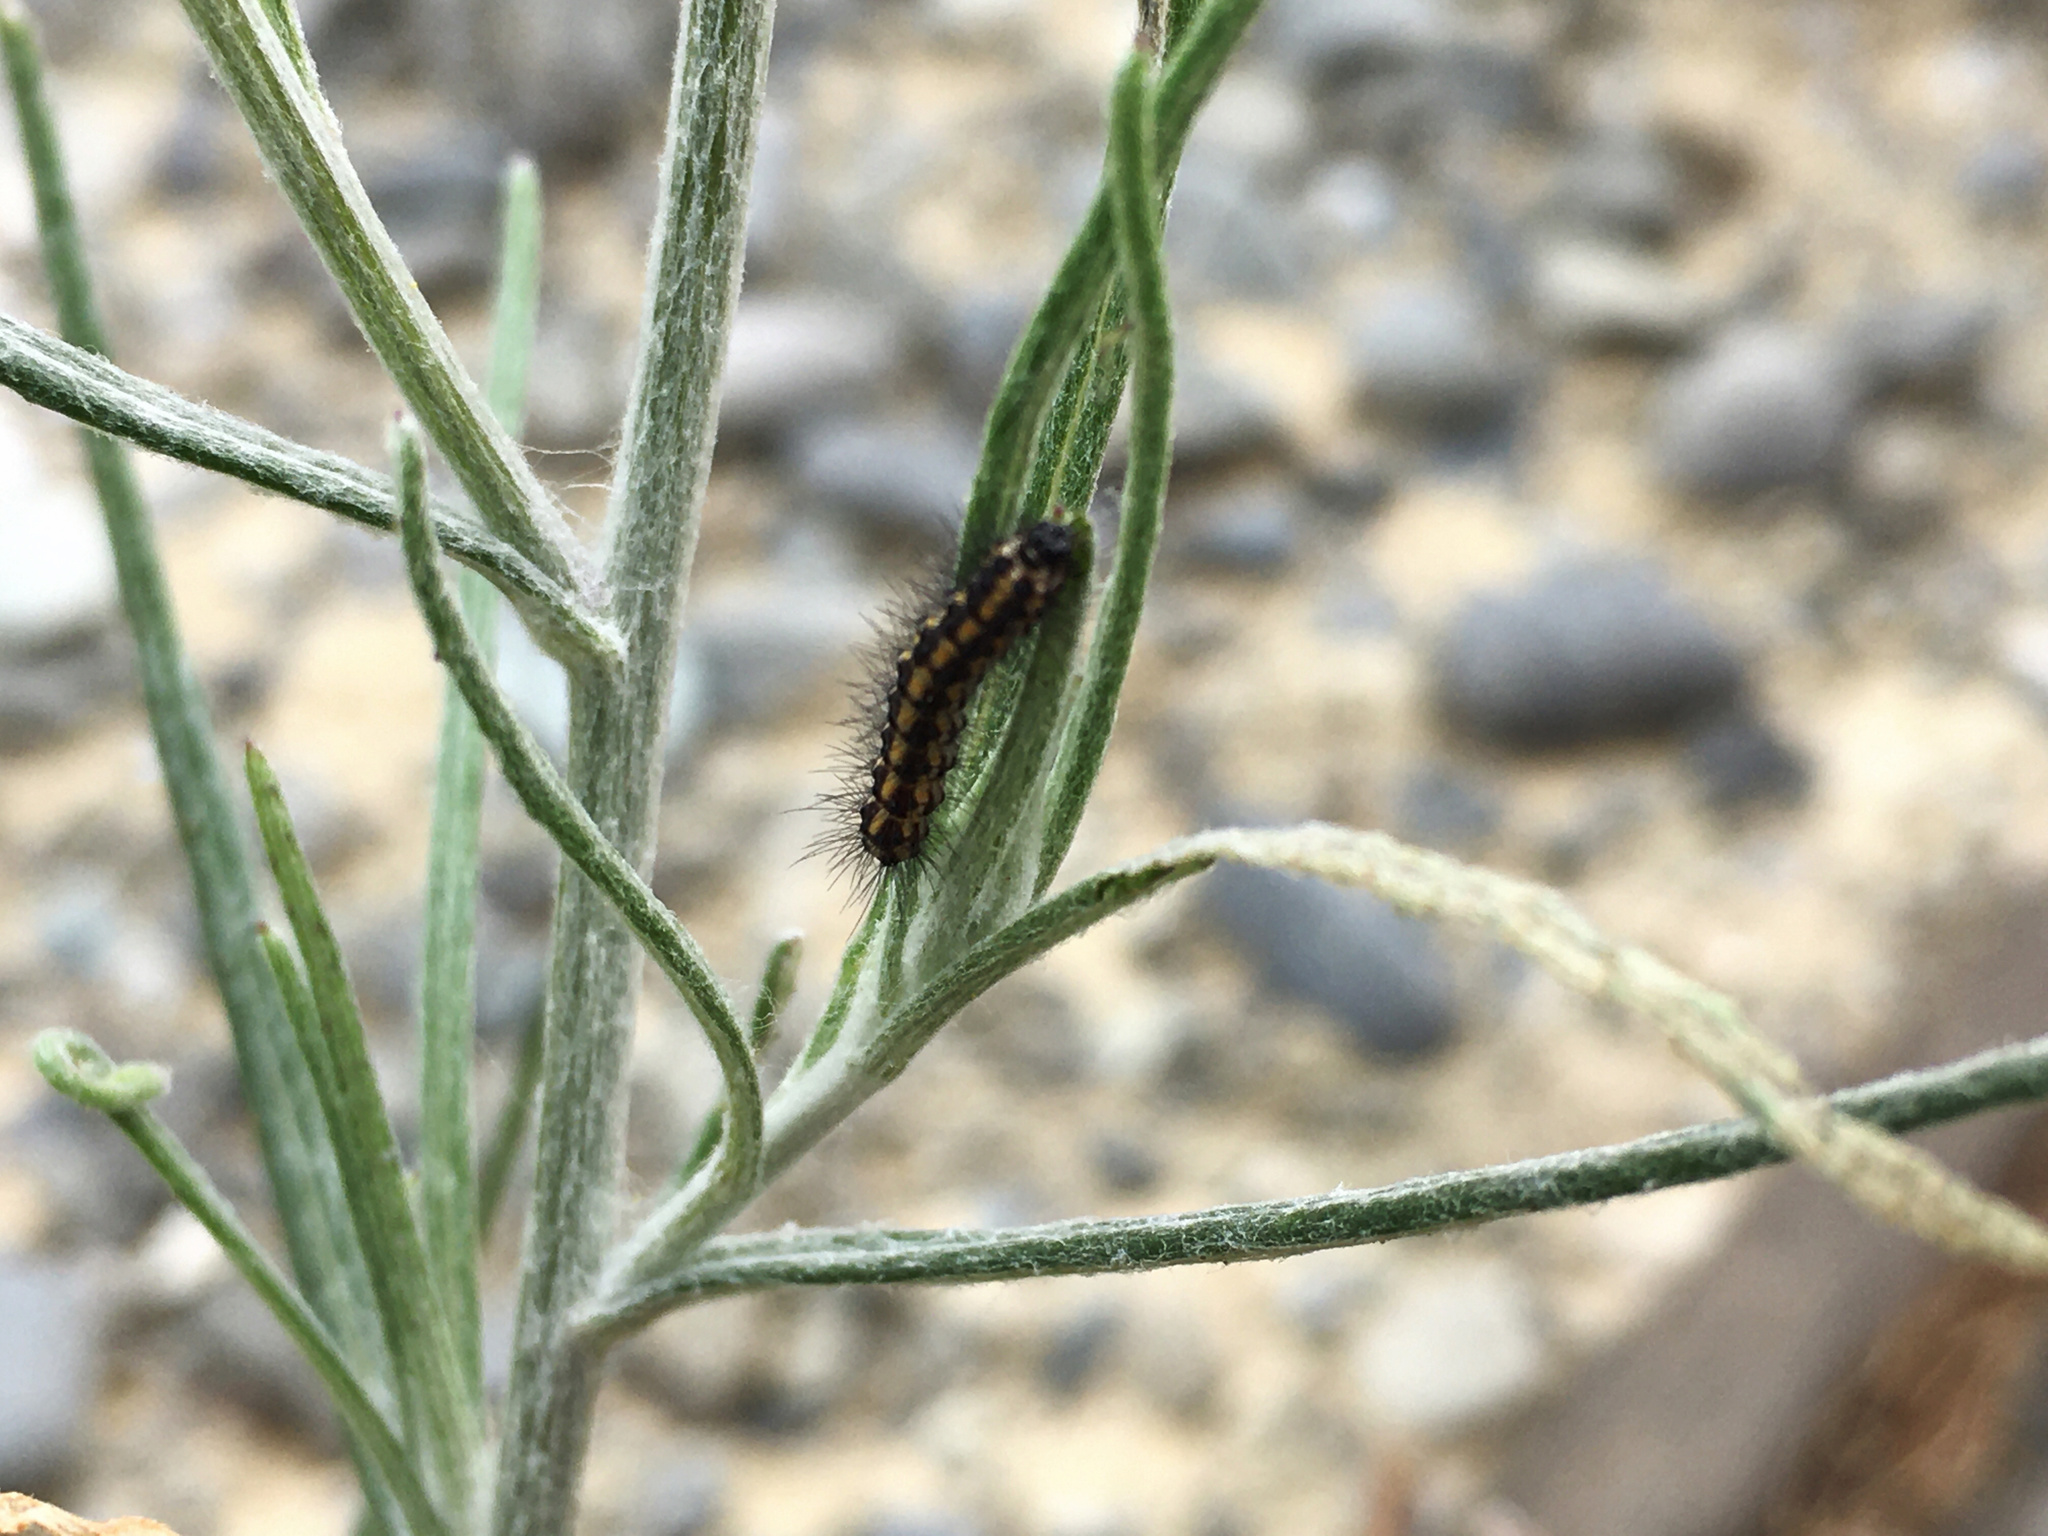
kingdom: Animalia
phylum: Arthropoda
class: Insecta
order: Lepidoptera
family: Erebidae
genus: Nyctemera
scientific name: Nyctemera annulatum
